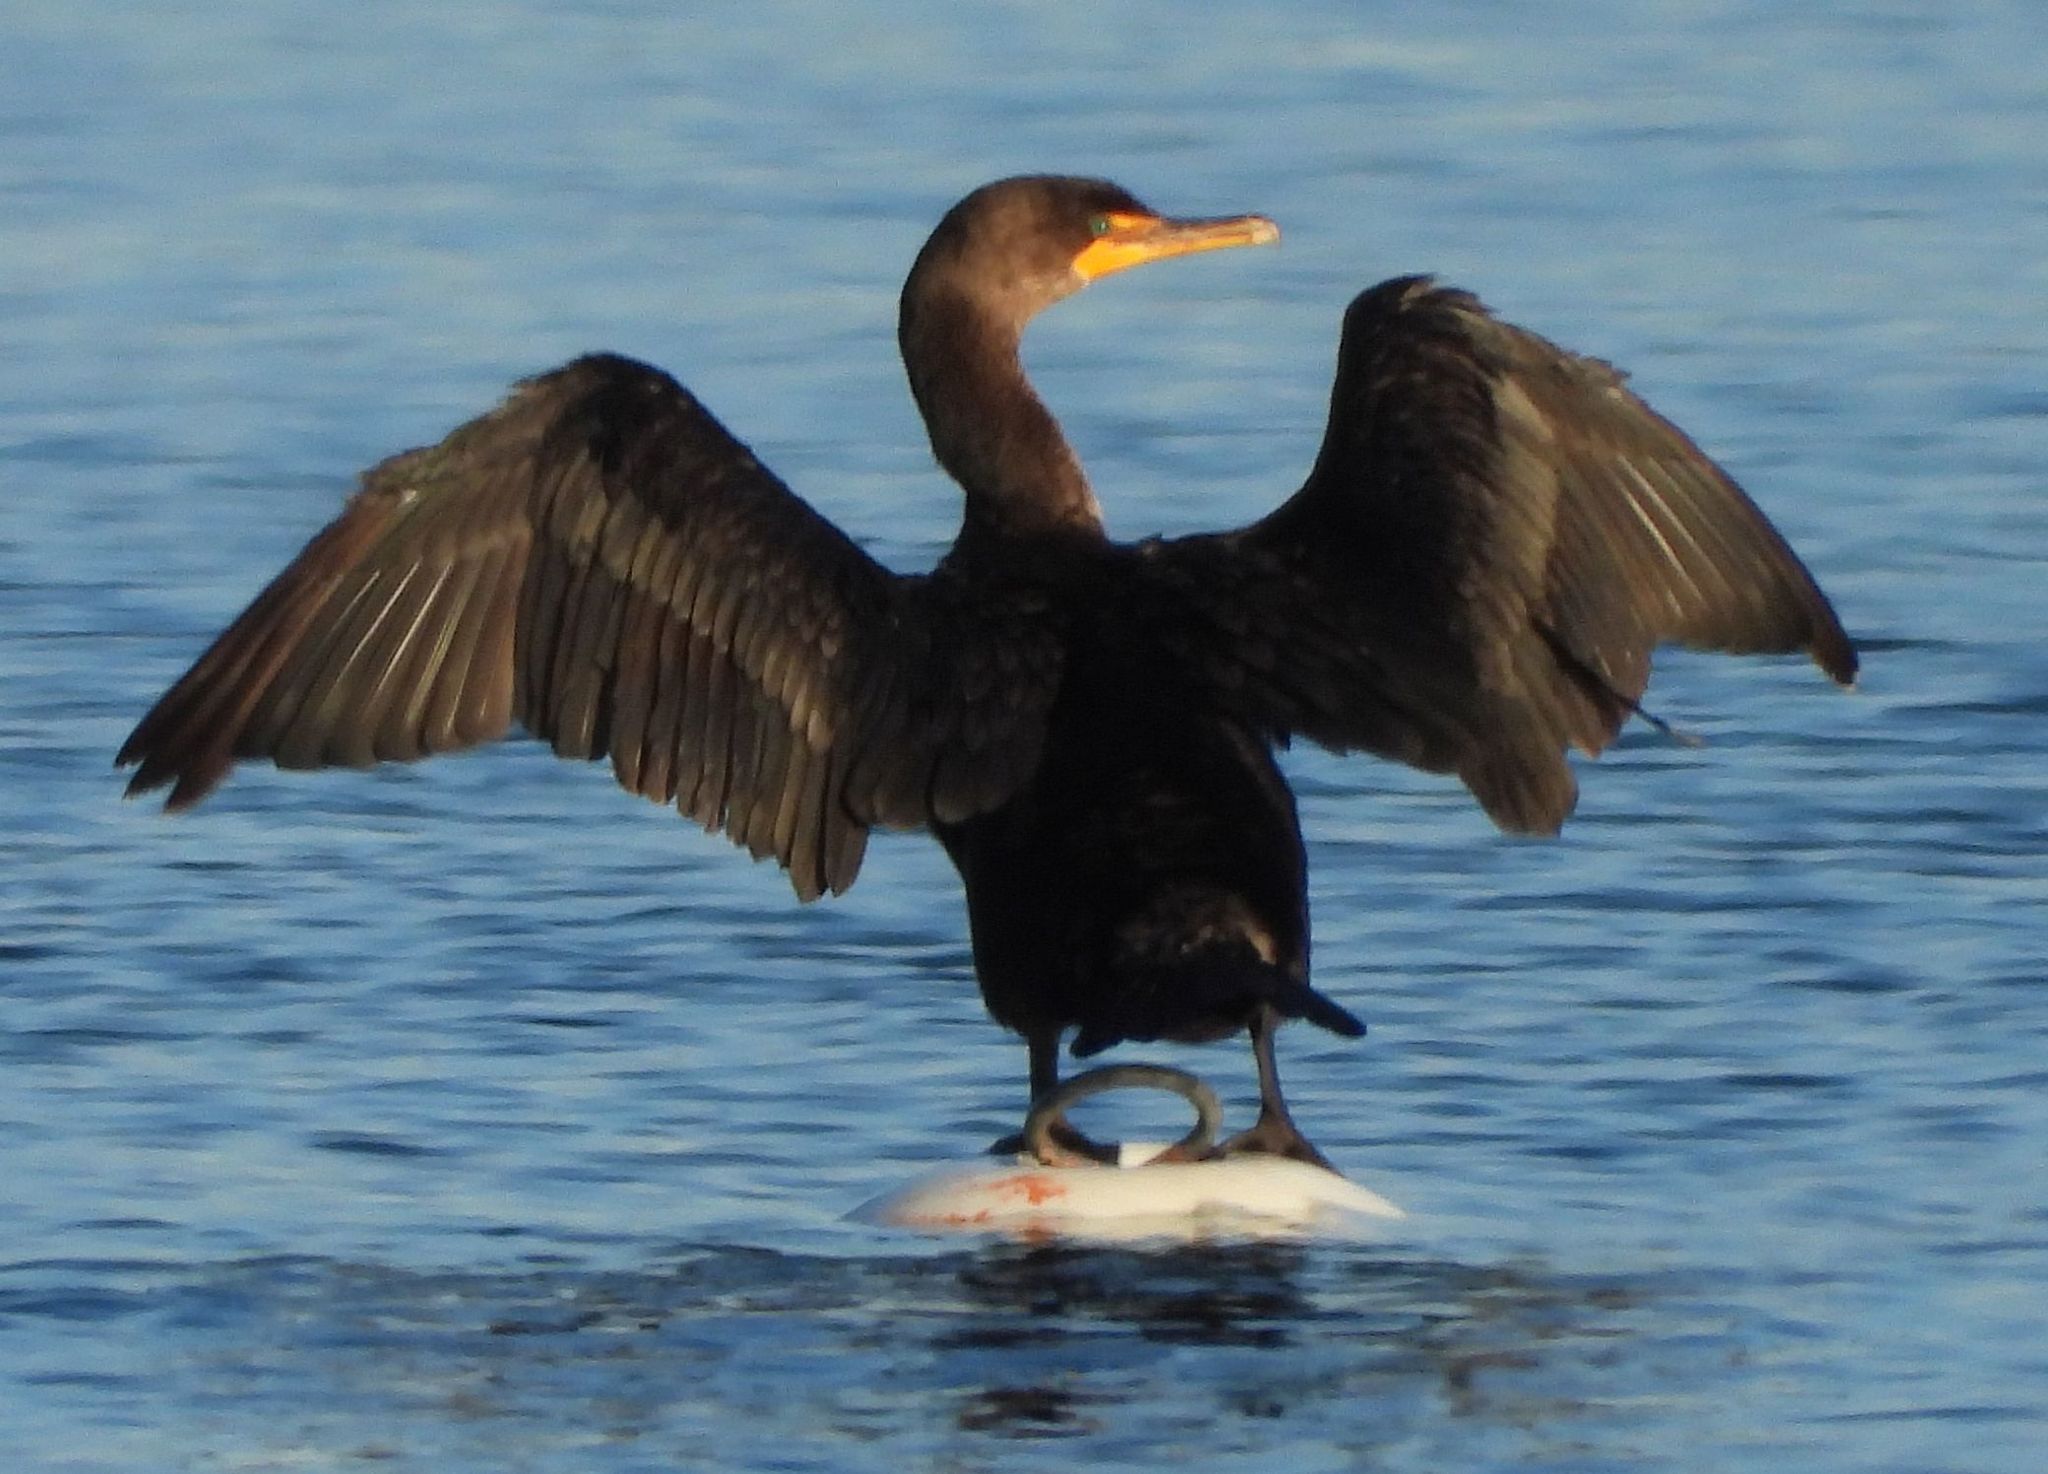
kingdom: Animalia
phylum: Chordata
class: Aves
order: Suliformes
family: Phalacrocoracidae
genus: Phalacrocorax
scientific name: Phalacrocorax auritus
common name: Double-crested cormorant
